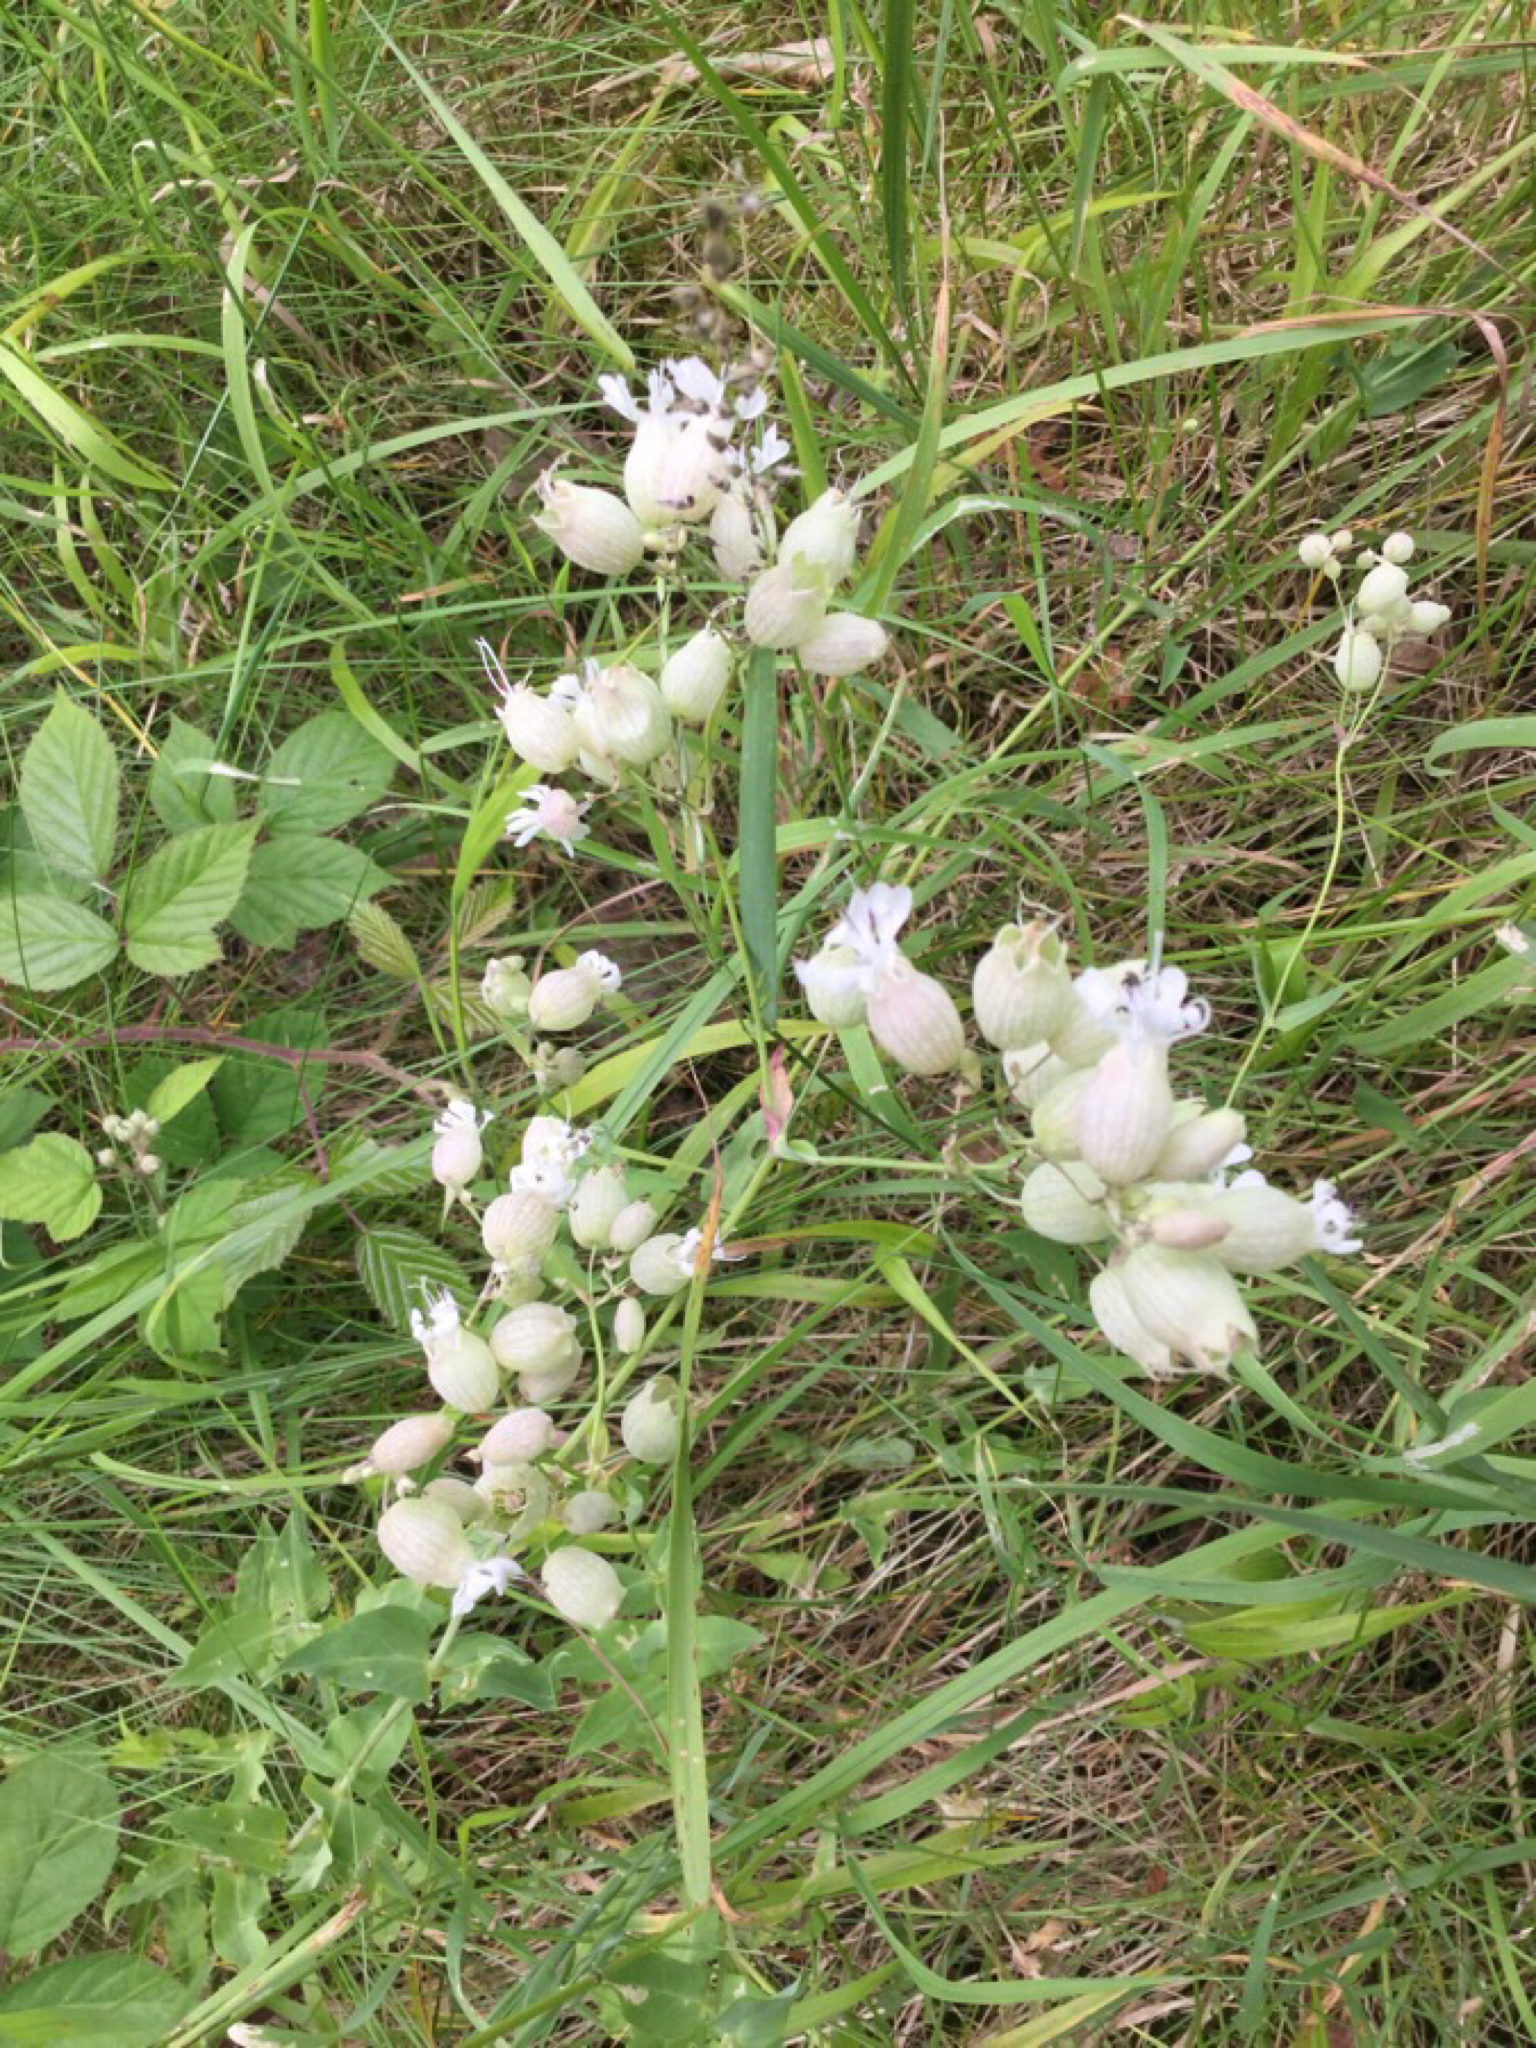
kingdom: Plantae
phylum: Tracheophyta
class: Magnoliopsida
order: Caryophyllales
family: Caryophyllaceae
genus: Silene
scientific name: Silene vulgaris
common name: Bladder campion
